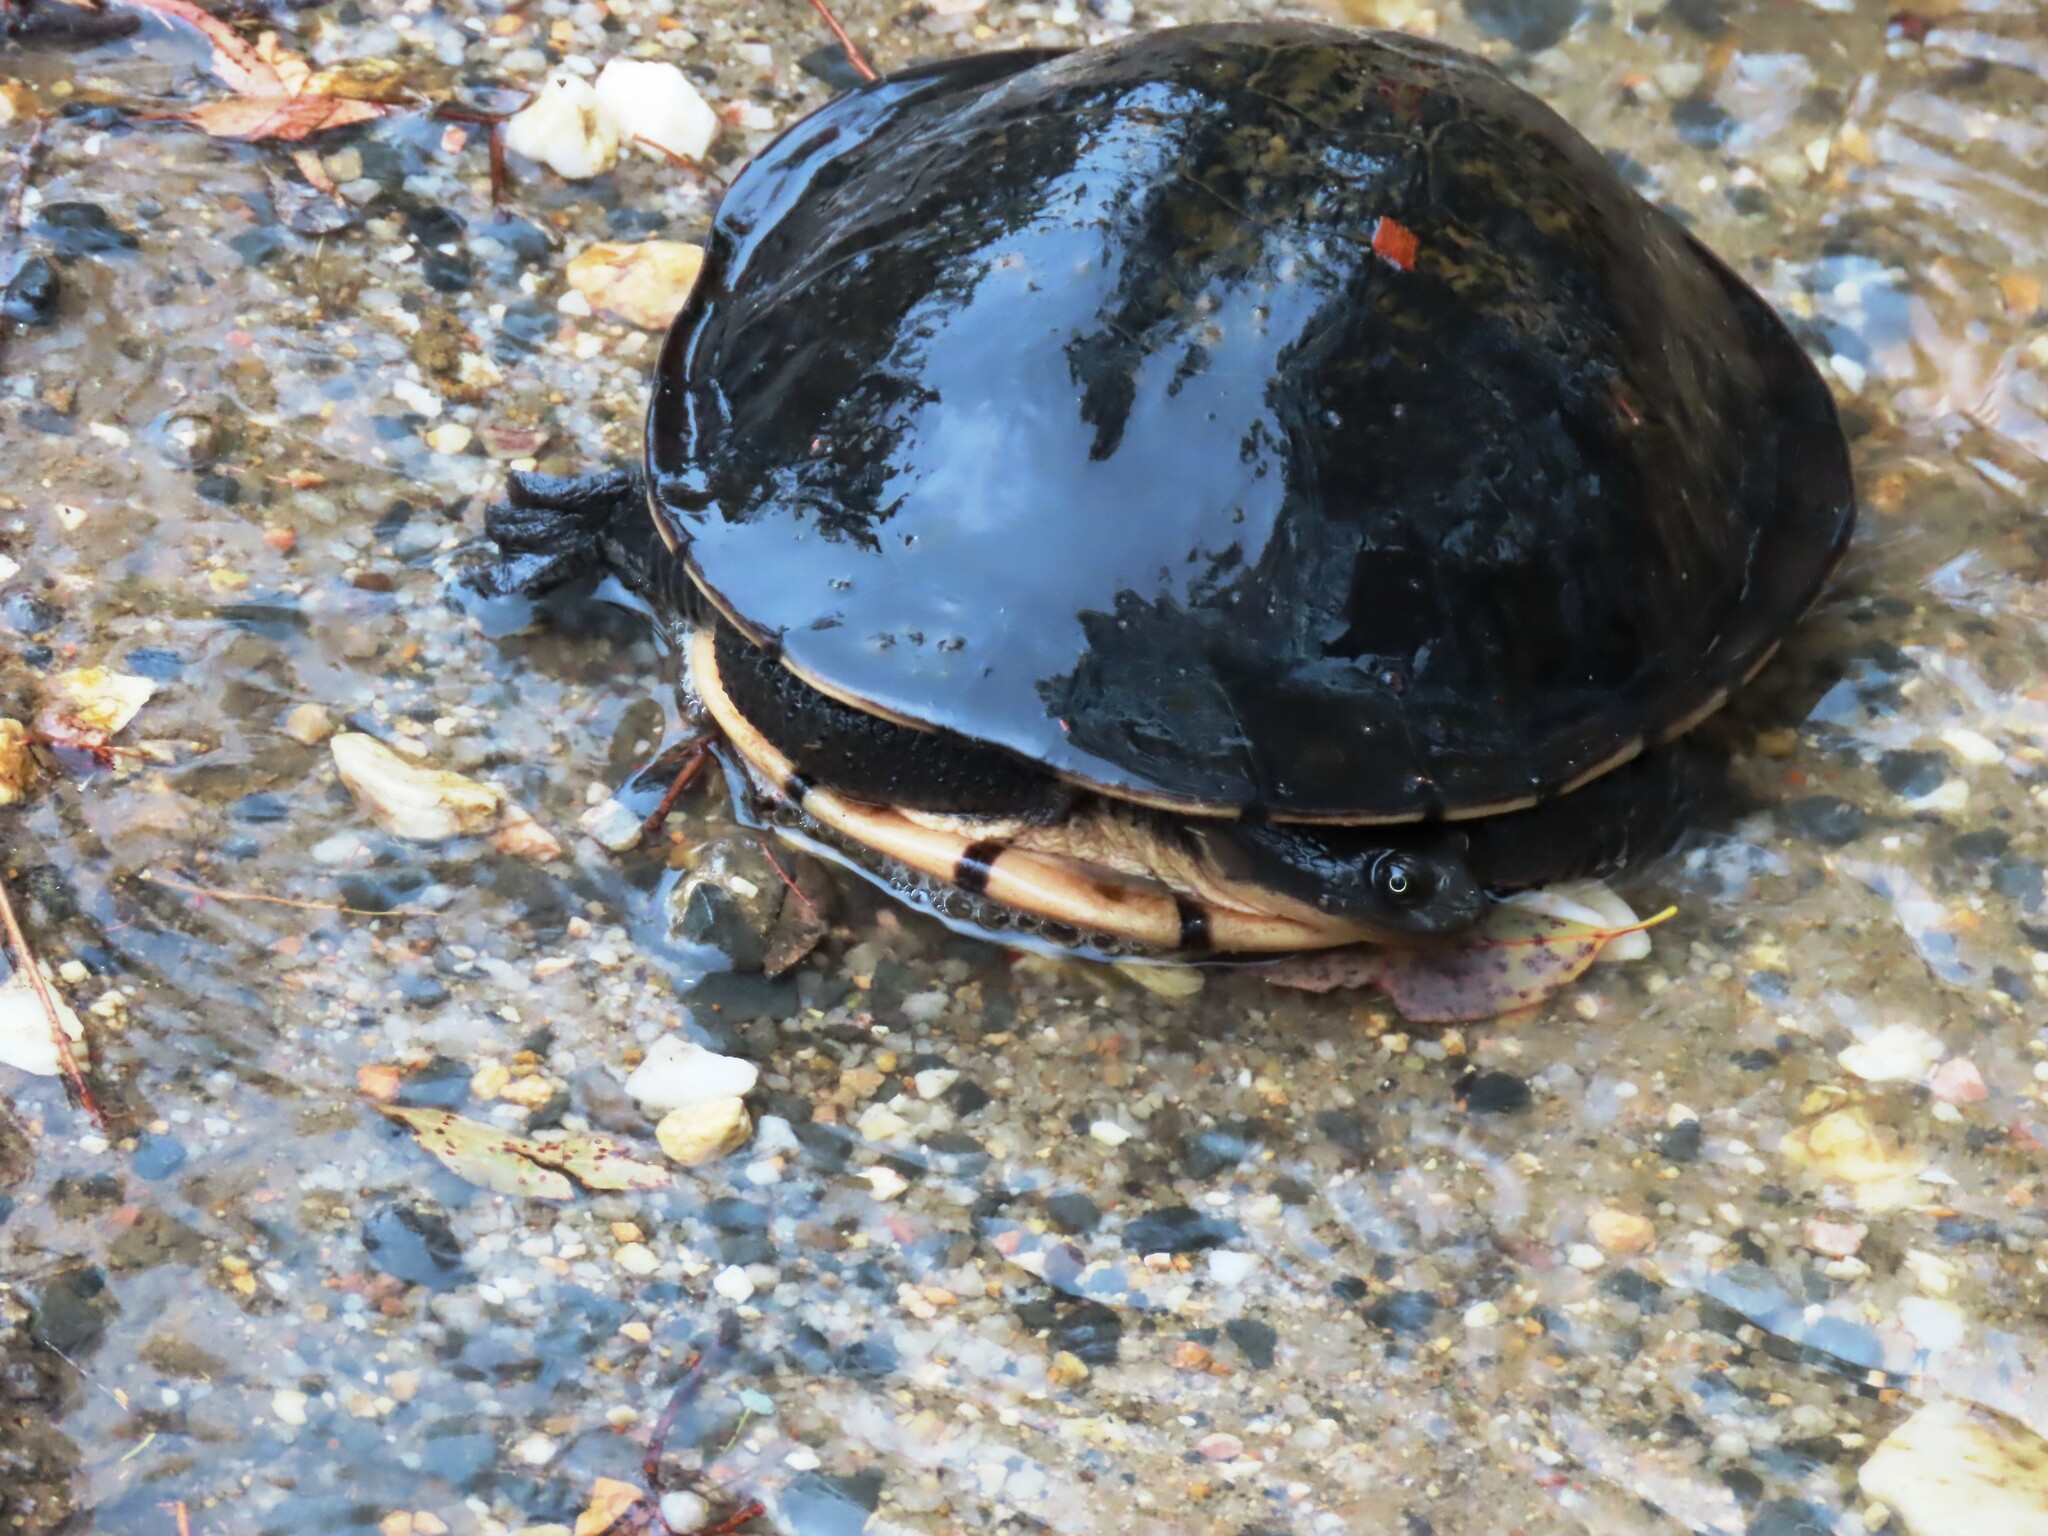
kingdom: Animalia
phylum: Chordata
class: Testudines
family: Chelidae
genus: Chelodina
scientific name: Chelodina longicollis
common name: Eastern snake-necked turtle
